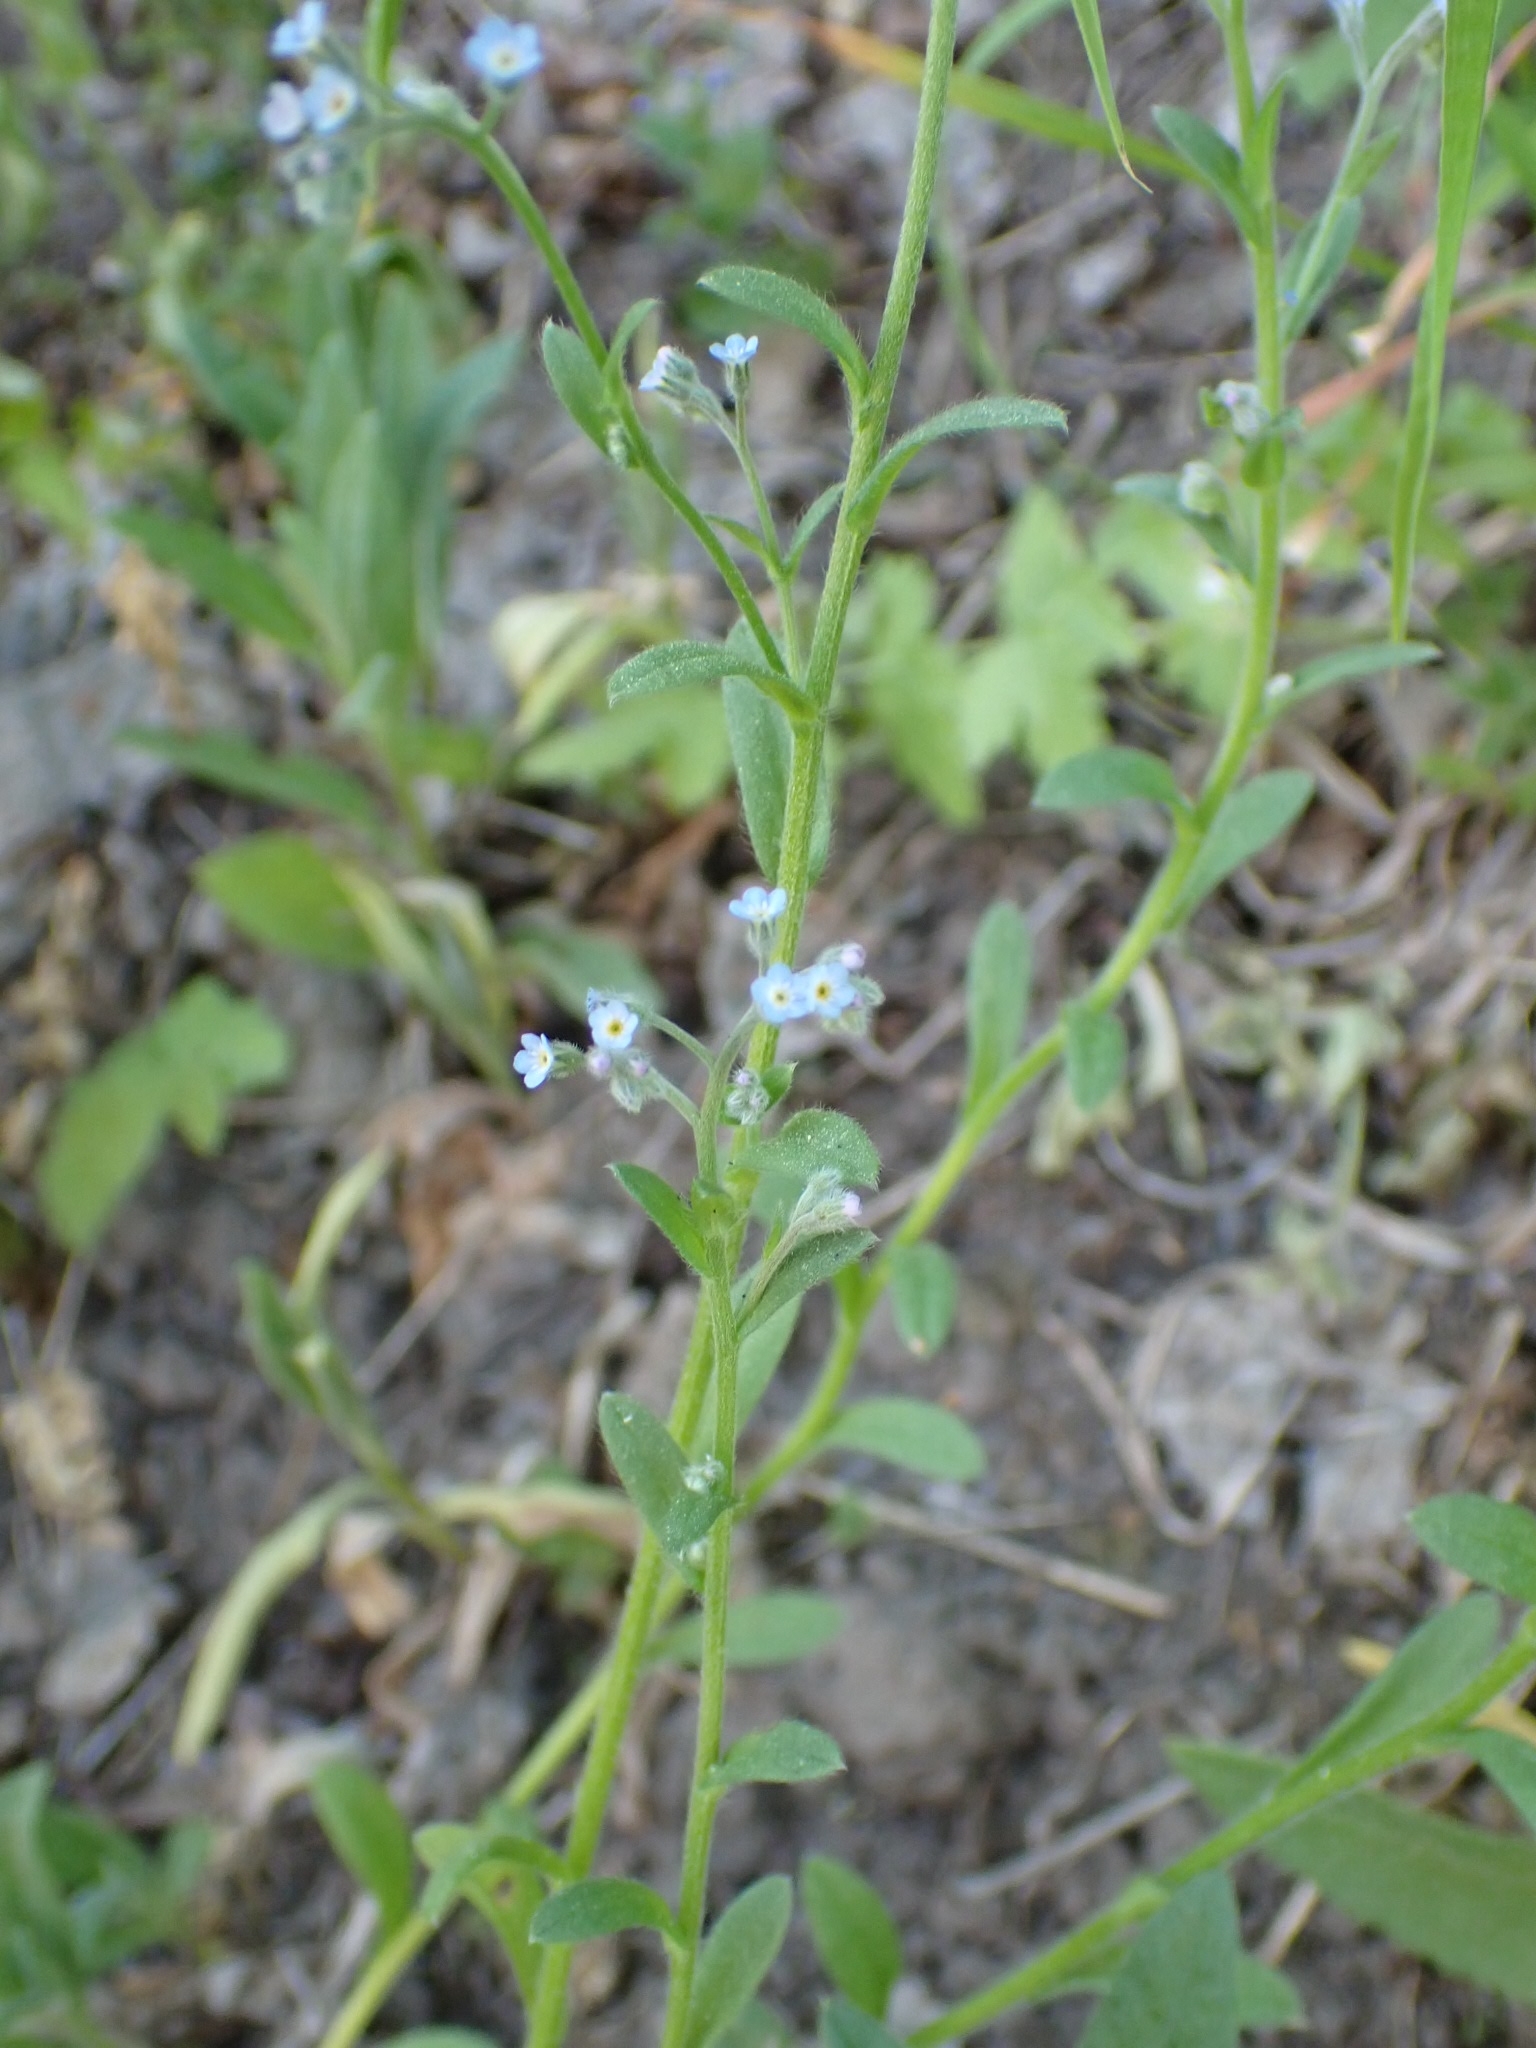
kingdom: Plantae
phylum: Tracheophyta
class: Magnoliopsida
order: Boraginales
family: Boraginaceae
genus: Myosotis
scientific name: Myosotis arvensis
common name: Field forget-me-not
